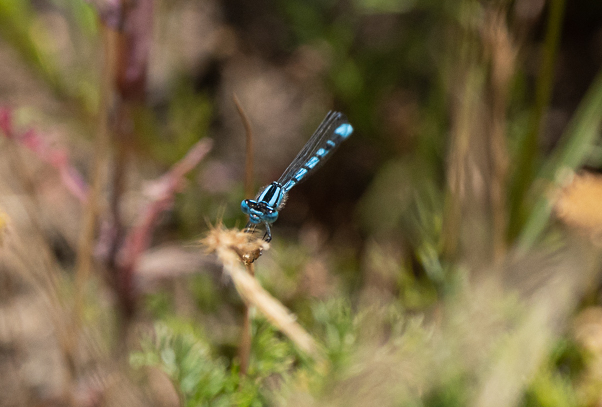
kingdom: Animalia
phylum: Arthropoda
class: Insecta
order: Odonata
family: Coenagrionidae
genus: Enallagma
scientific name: Enallagma cyathigerum
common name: Common blue damselfly
